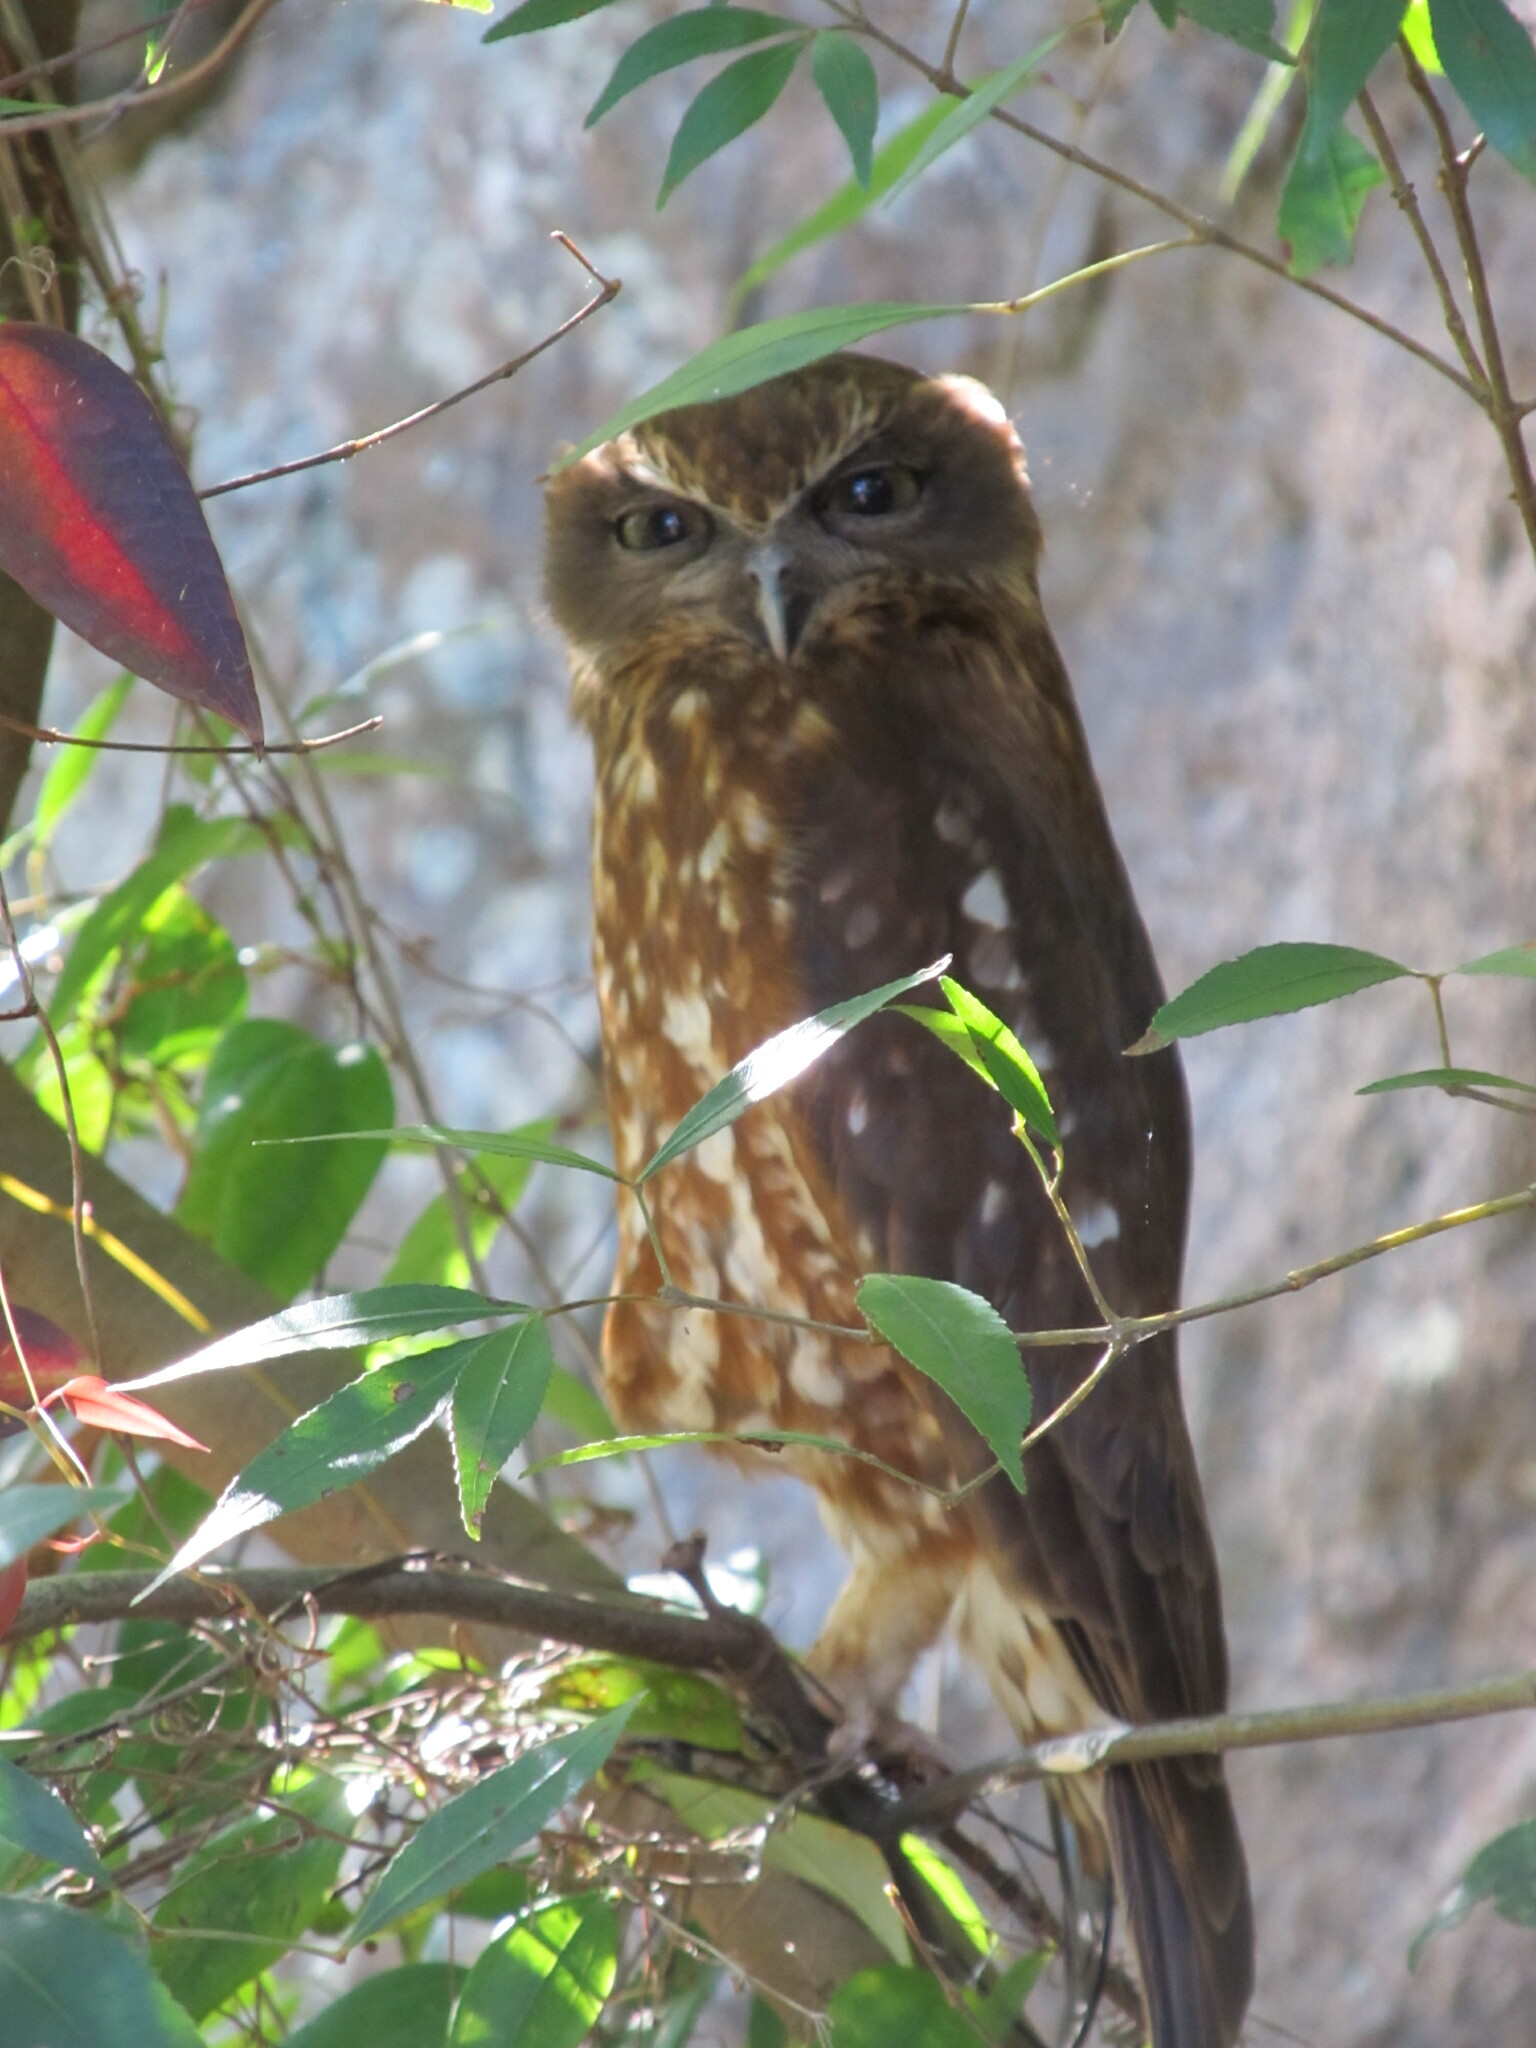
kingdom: Animalia
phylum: Chordata
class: Aves
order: Strigiformes
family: Strigidae
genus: Ninox
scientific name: Ninox boobook
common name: Southern boobook
